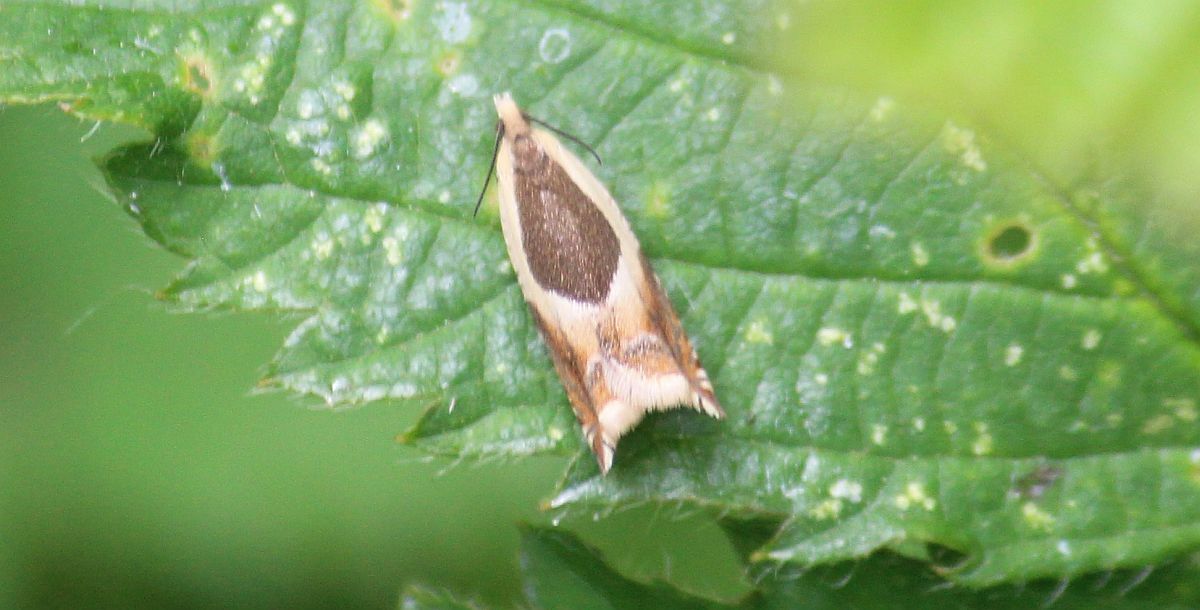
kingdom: Animalia
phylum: Arthropoda
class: Insecta
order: Lepidoptera
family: Tortricidae
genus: Ancylis
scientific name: Ancylis badiana
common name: Common roller
